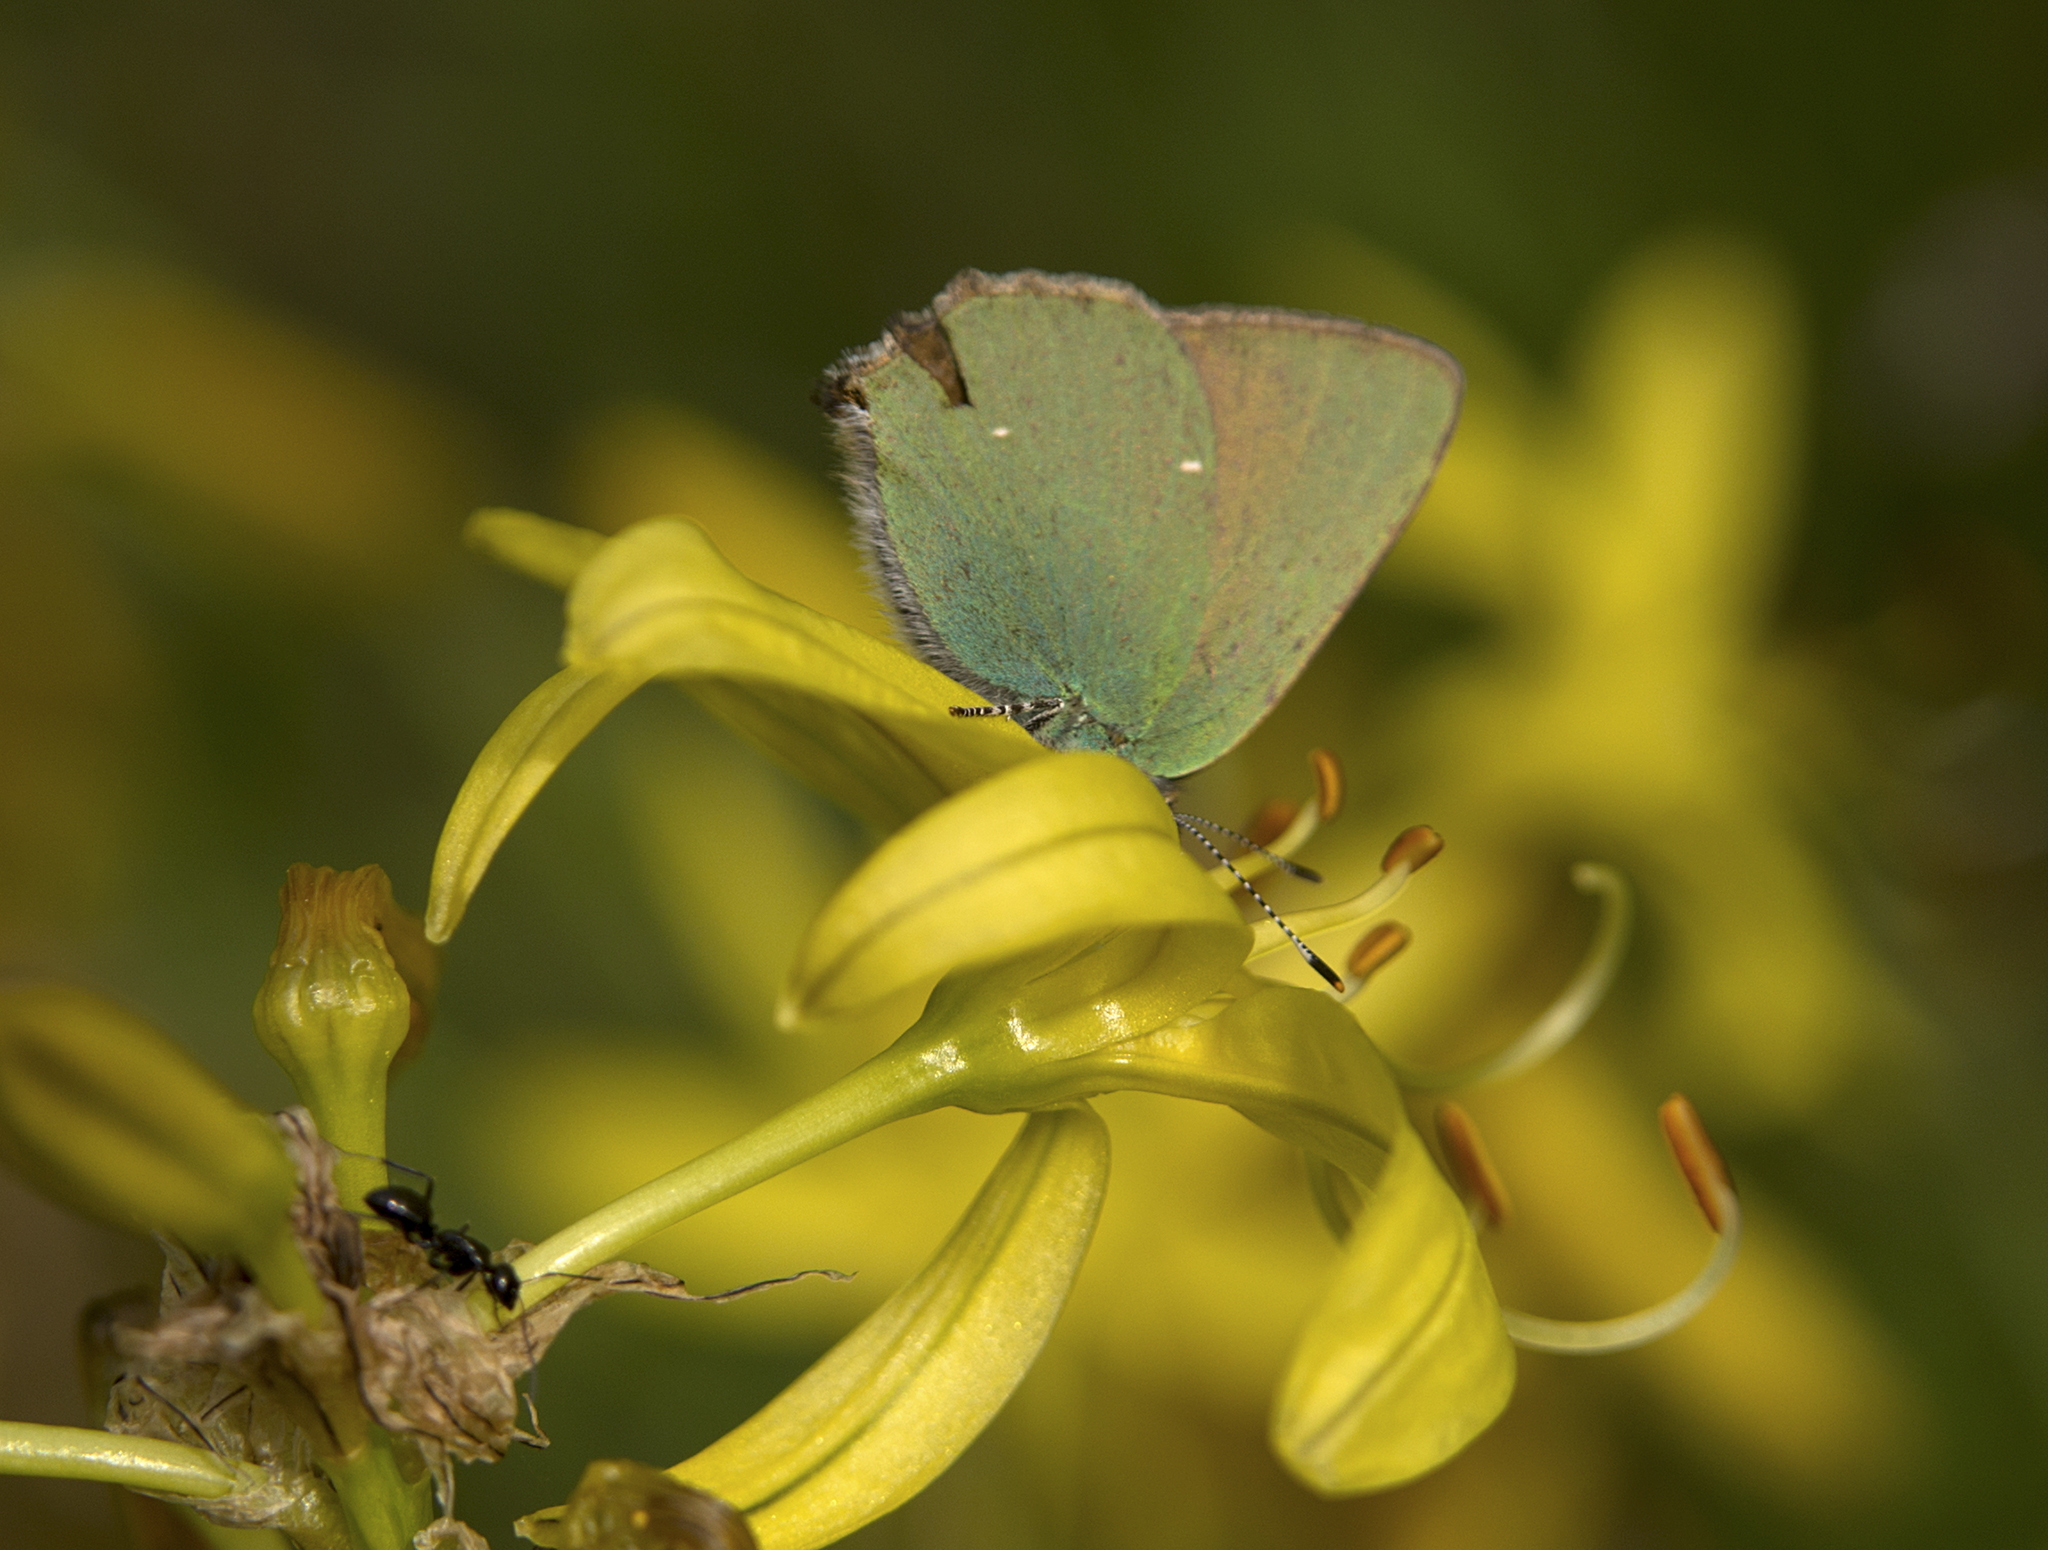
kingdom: Animalia
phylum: Arthropoda
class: Insecta
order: Lepidoptera
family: Lycaenidae
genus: Callophrys
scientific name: Callophrys rubi
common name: Green hairstreak
